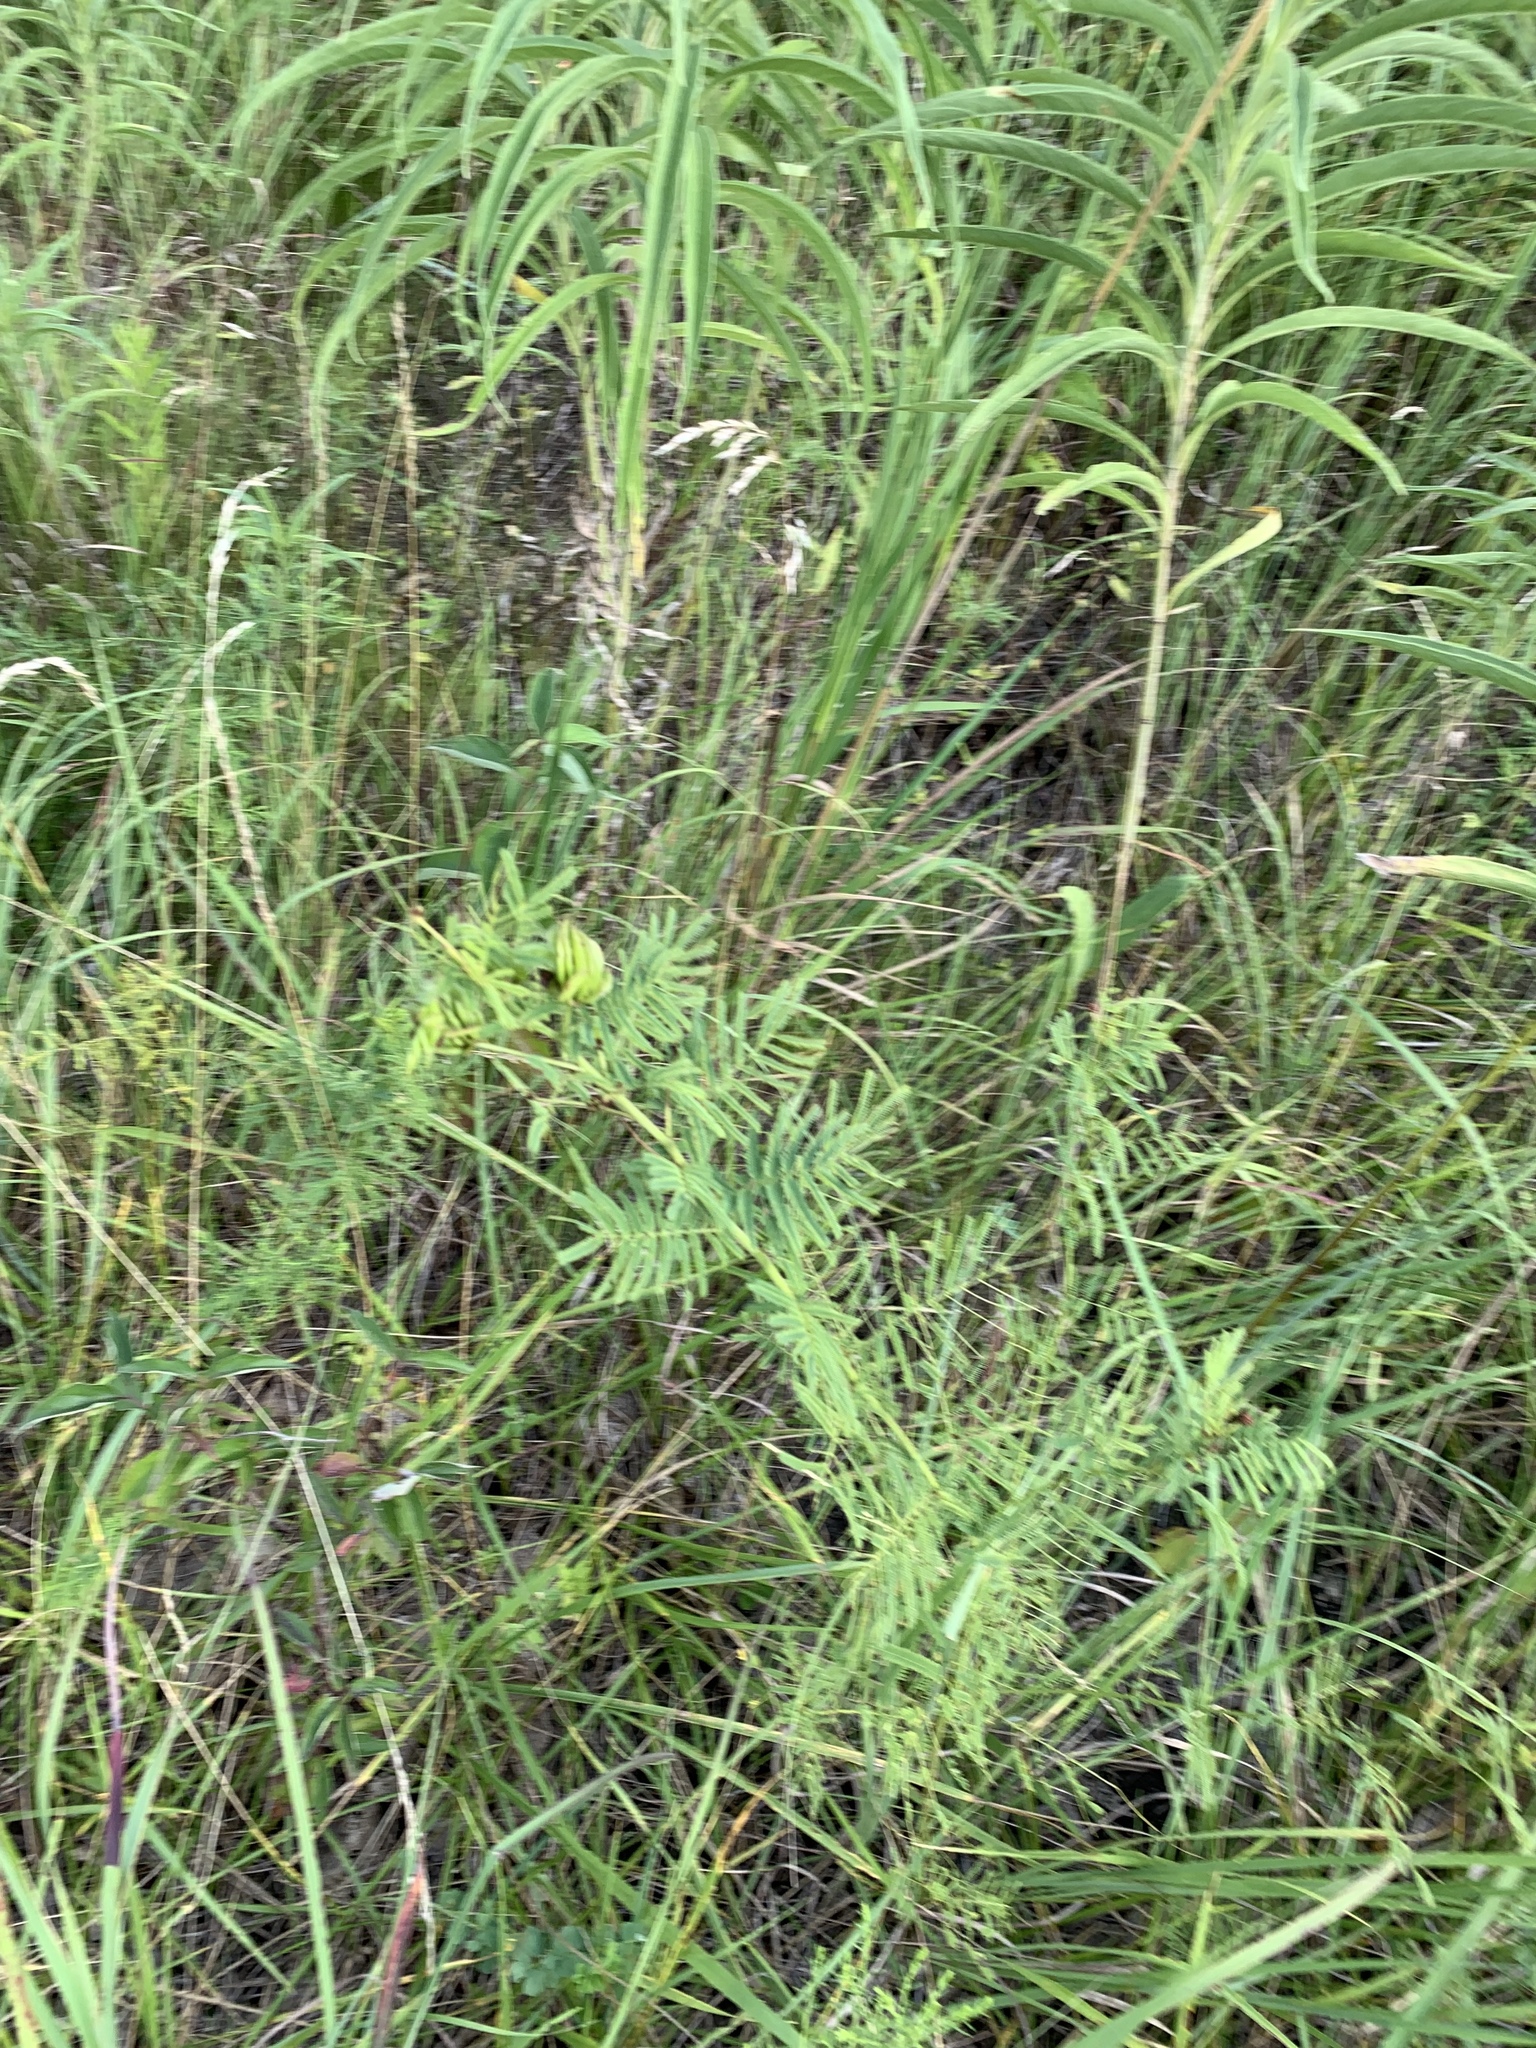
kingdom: Plantae
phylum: Tracheophyta
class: Magnoliopsida
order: Fabales
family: Fabaceae
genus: Desmanthus
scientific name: Desmanthus illinoensis
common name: Illinois bundle-flower
